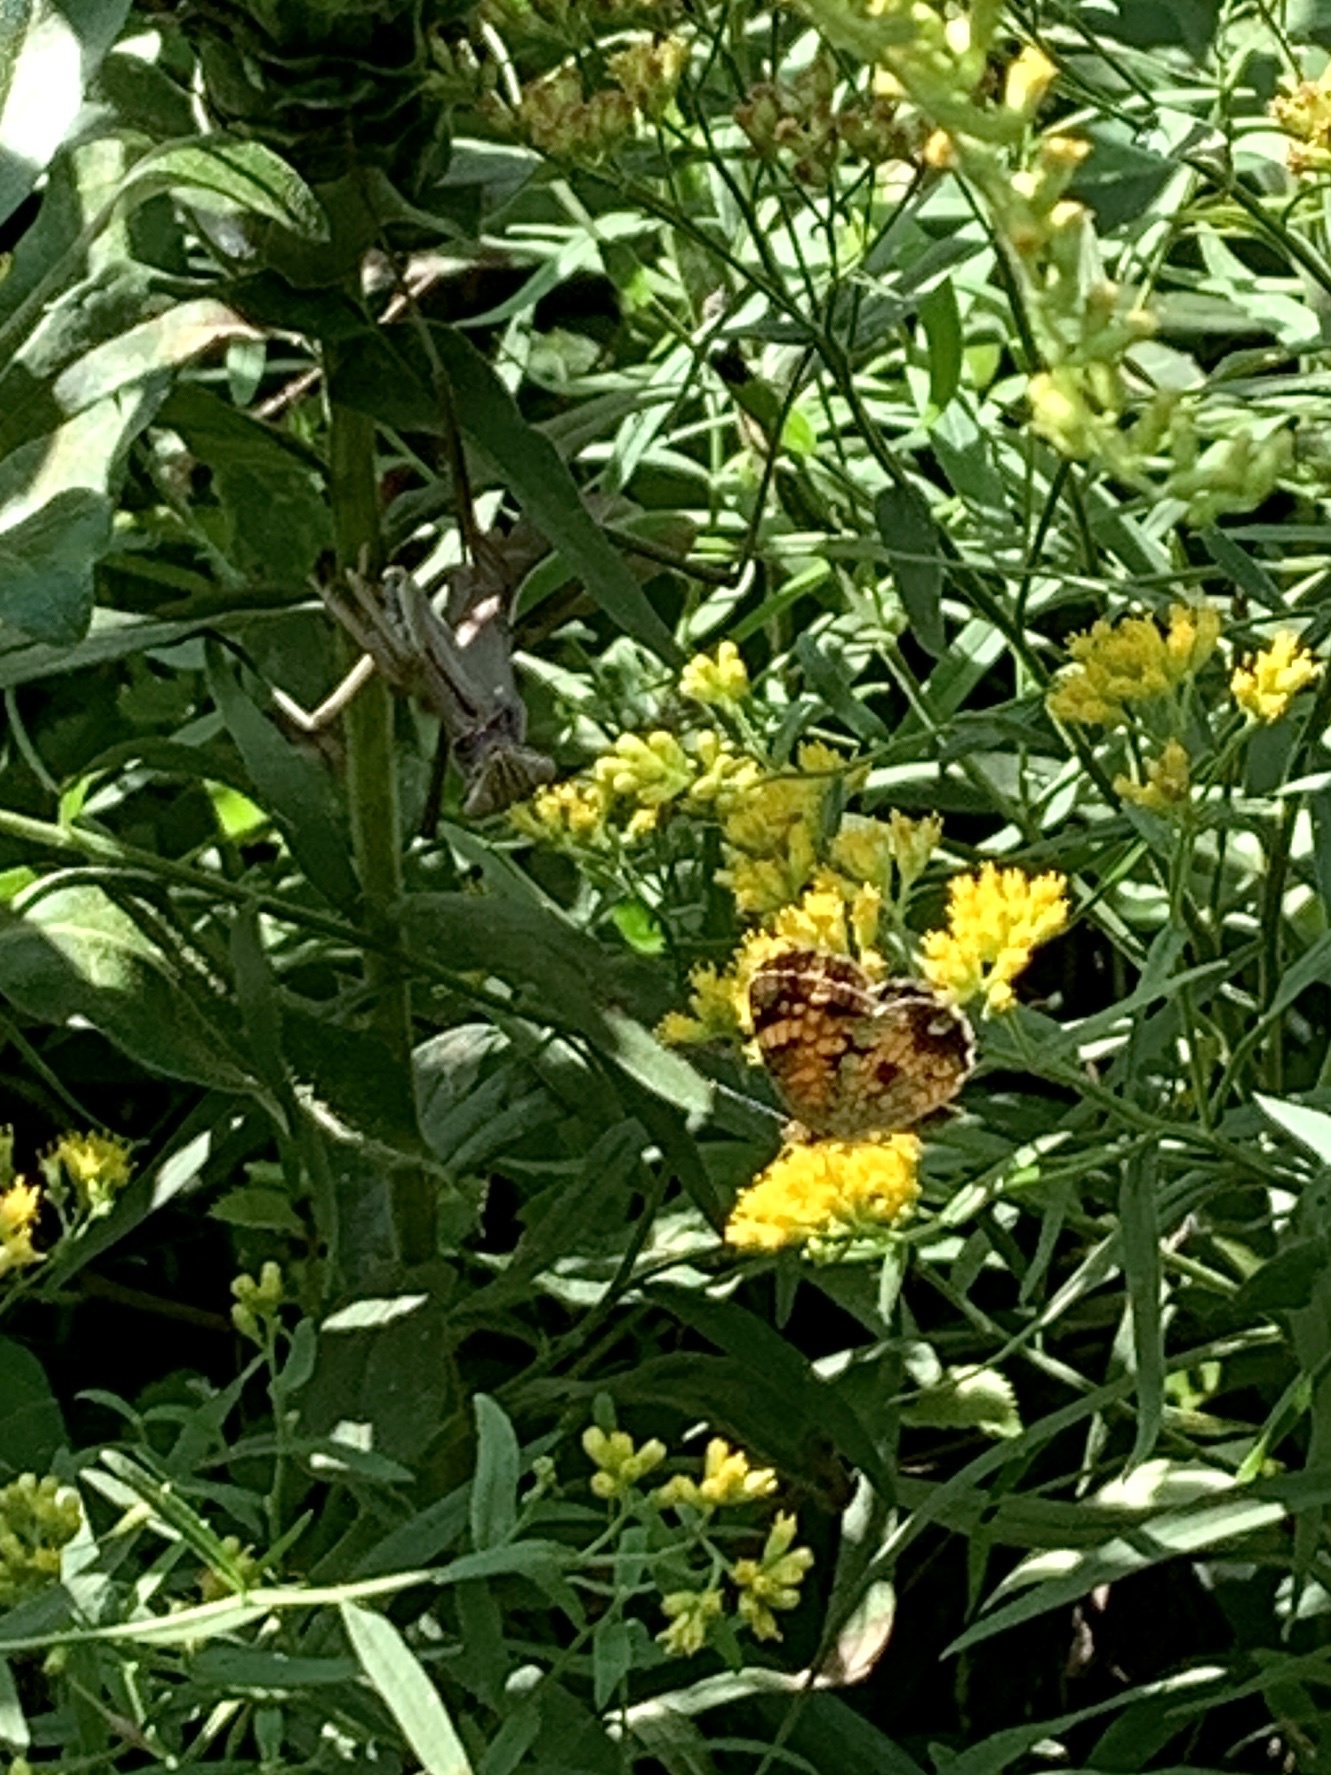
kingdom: Animalia
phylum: Arthropoda
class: Insecta
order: Lepidoptera
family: Nymphalidae
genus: Phyciodes
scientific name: Phyciodes tharos
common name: Pearl crescent
